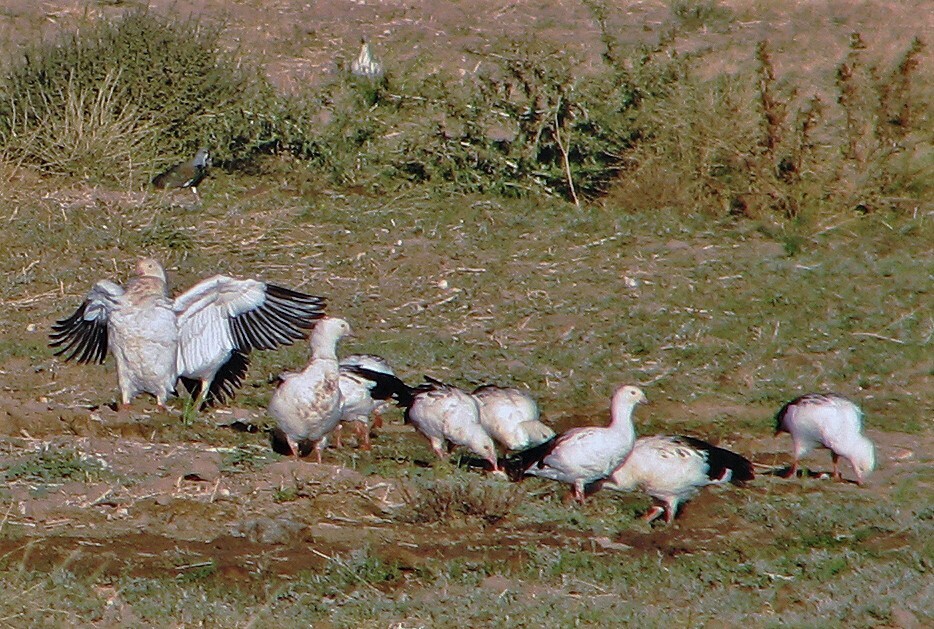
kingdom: Animalia
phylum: Chordata
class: Aves
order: Anseriformes
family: Anatidae
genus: Chloephaga
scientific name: Chloephaga melanoptera
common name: Andean goose
